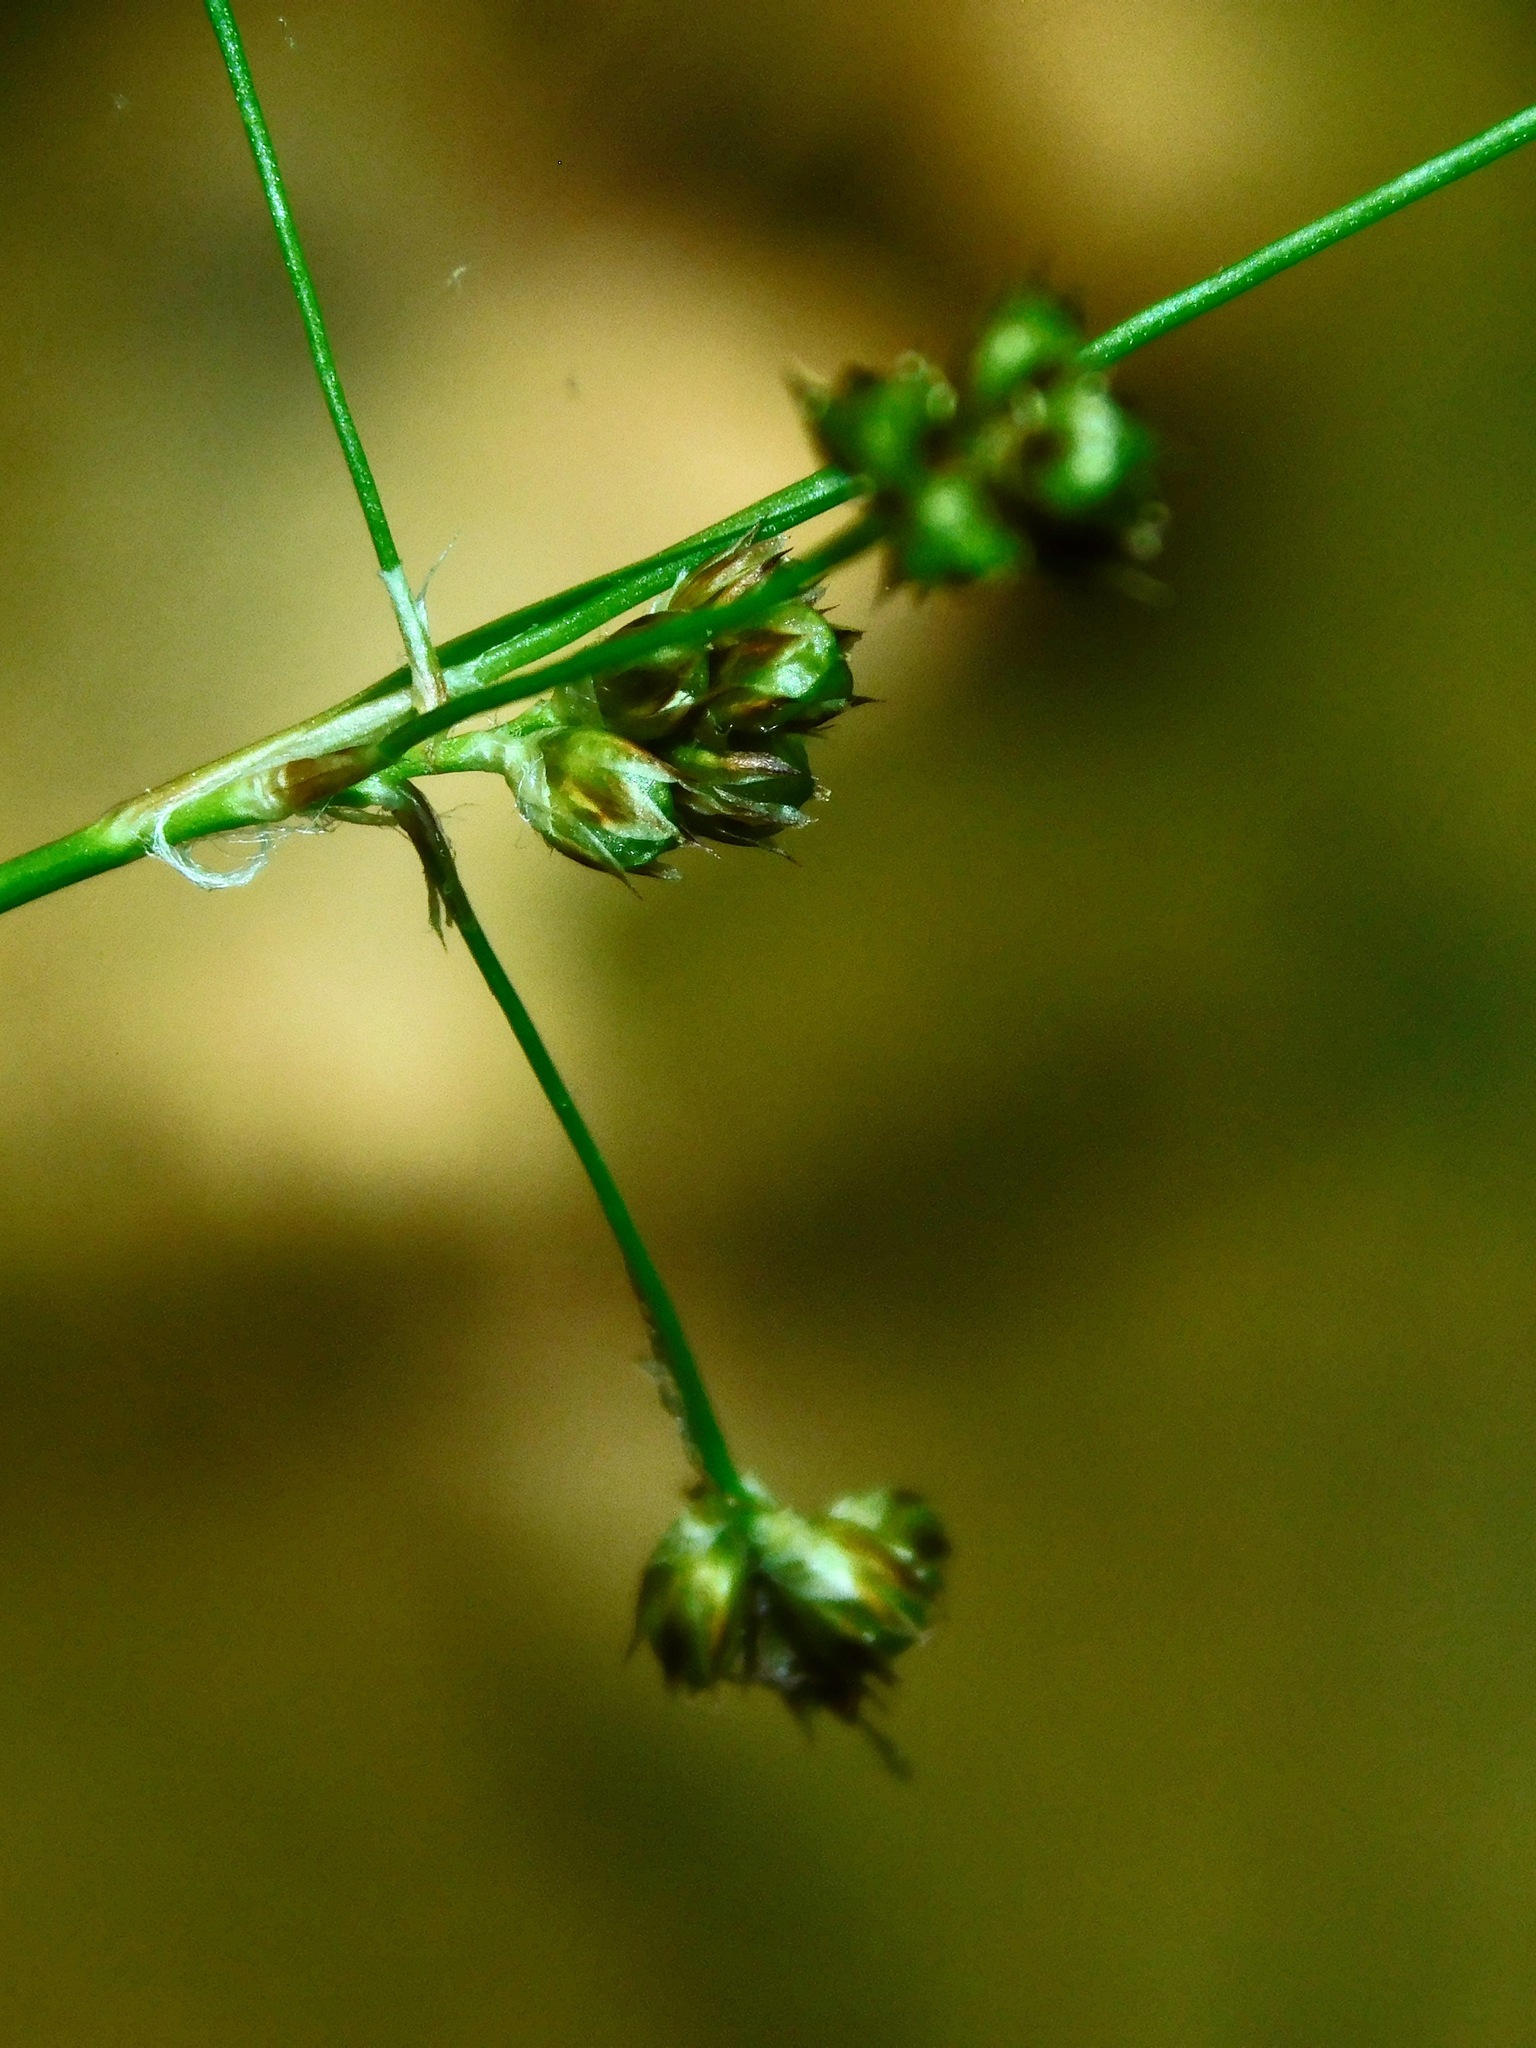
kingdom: Plantae
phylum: Tracheophyta
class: Liliopsida
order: Poales
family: Juncaceae
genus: Luzula
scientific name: Luzula echinata
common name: Hedgehog woodrush
